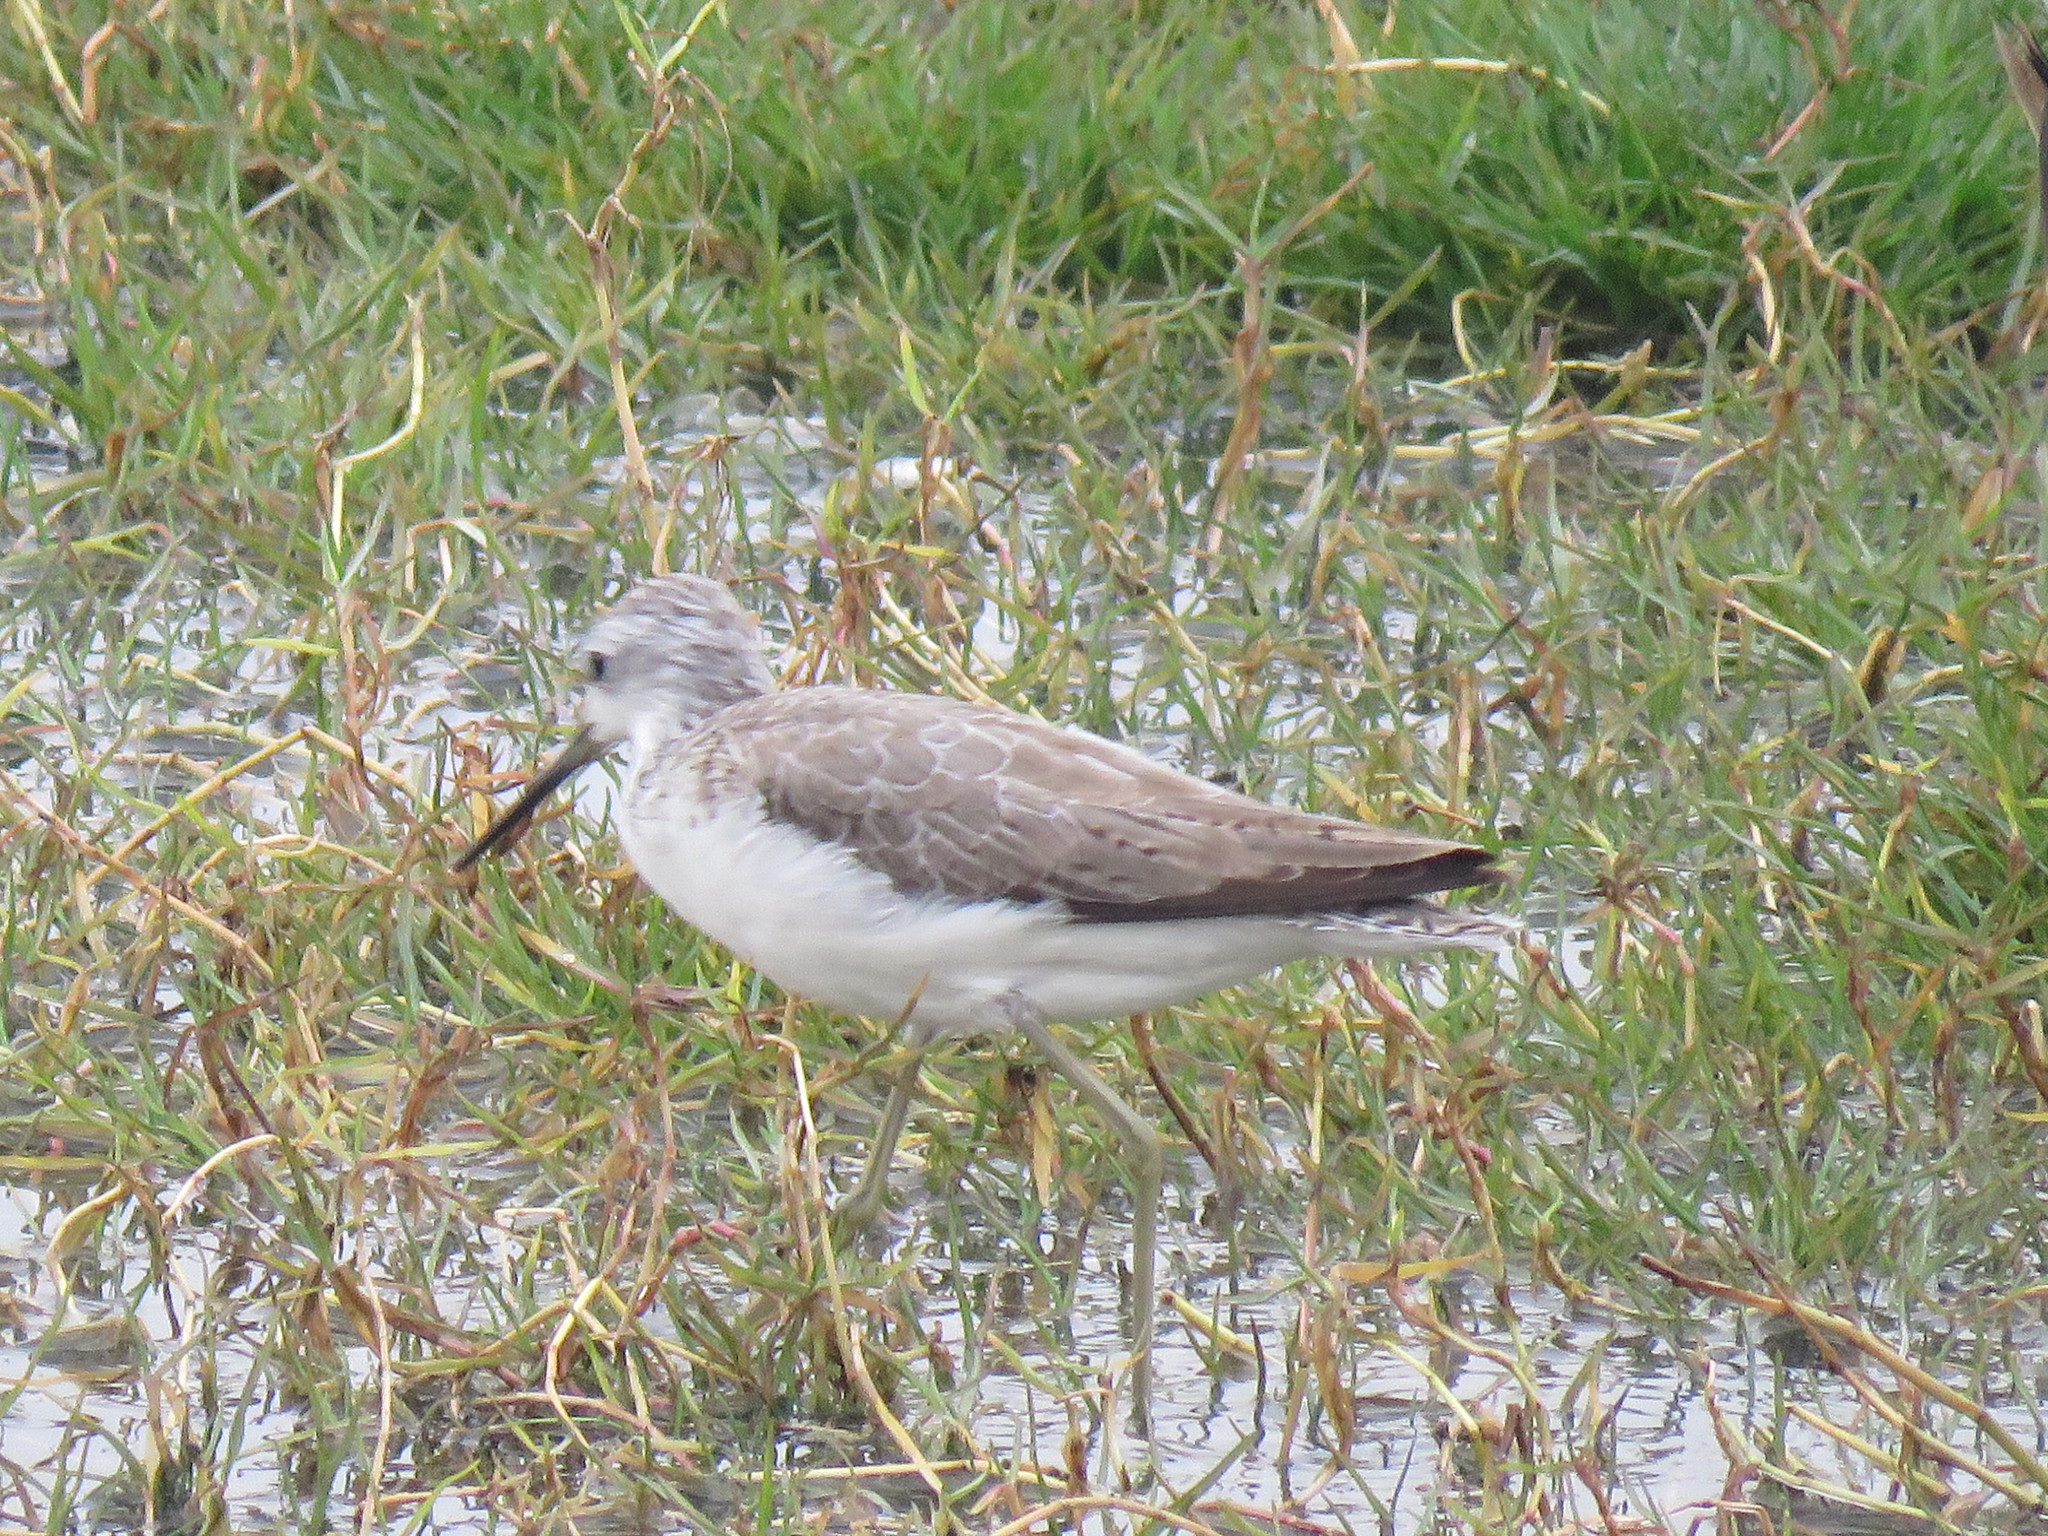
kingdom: Animalia
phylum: Chordata
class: Aves
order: Charadriiformes
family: Scolopacidae
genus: Tringa
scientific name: Tringa stagnatilis
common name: Marsh sandpiper
